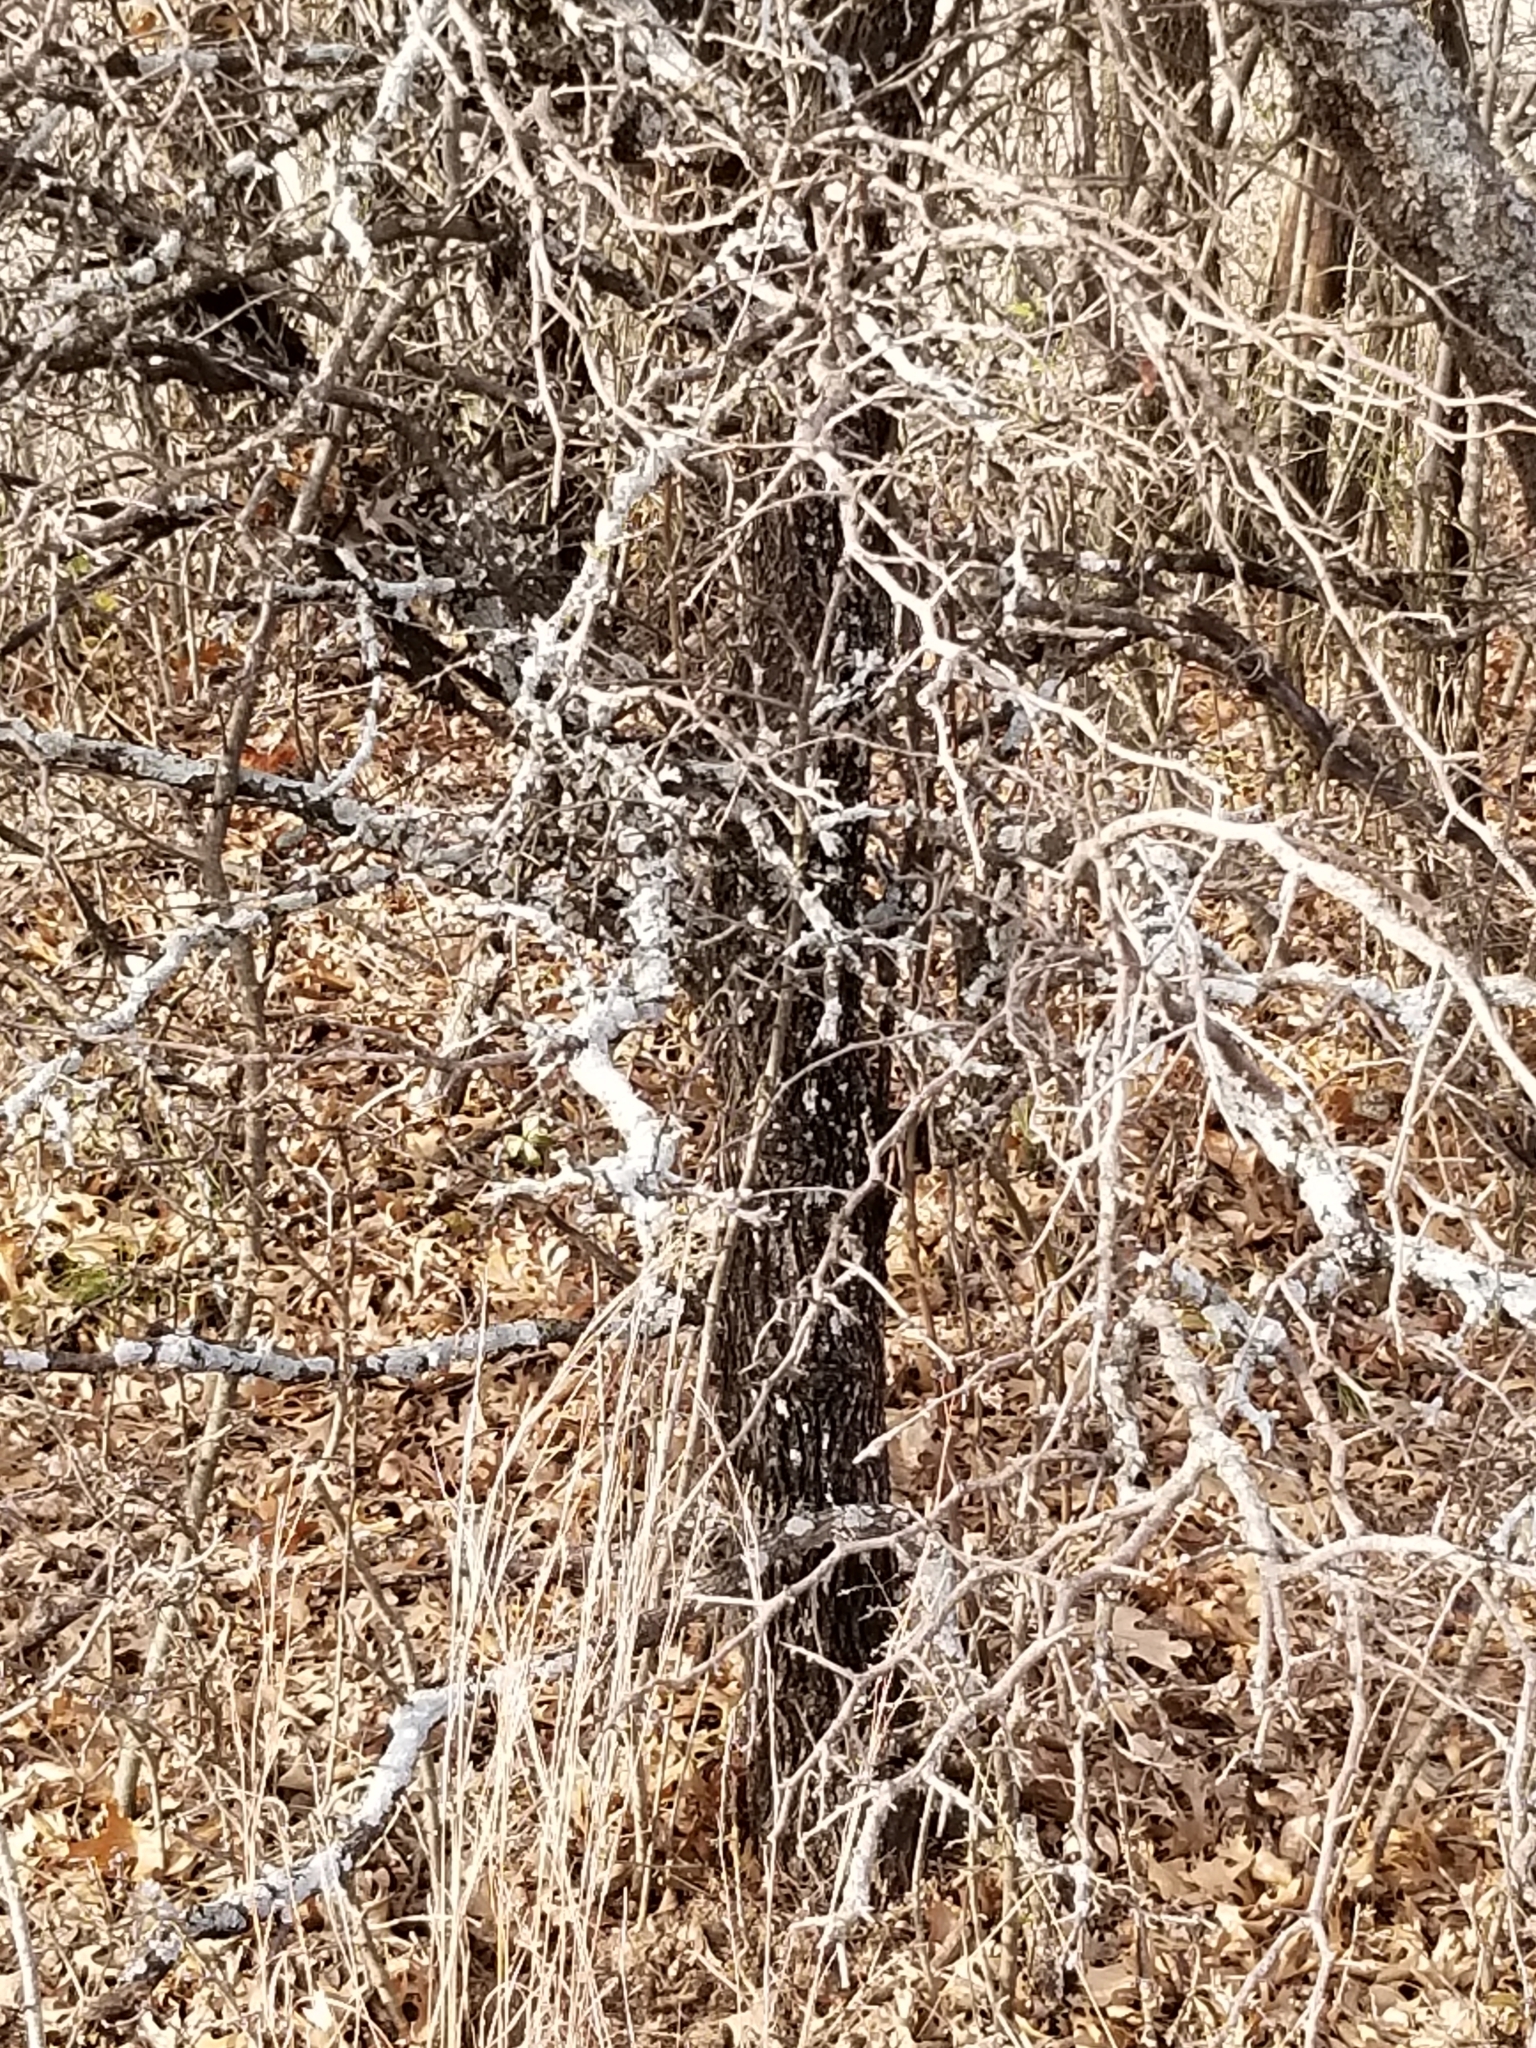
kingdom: Plantae
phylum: Tracheophyta
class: Magnoliopsida
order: Ericales
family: Sapotaceae
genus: Sideroxylon
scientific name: Sideroxylon lanuginosum
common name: Chittamwood
